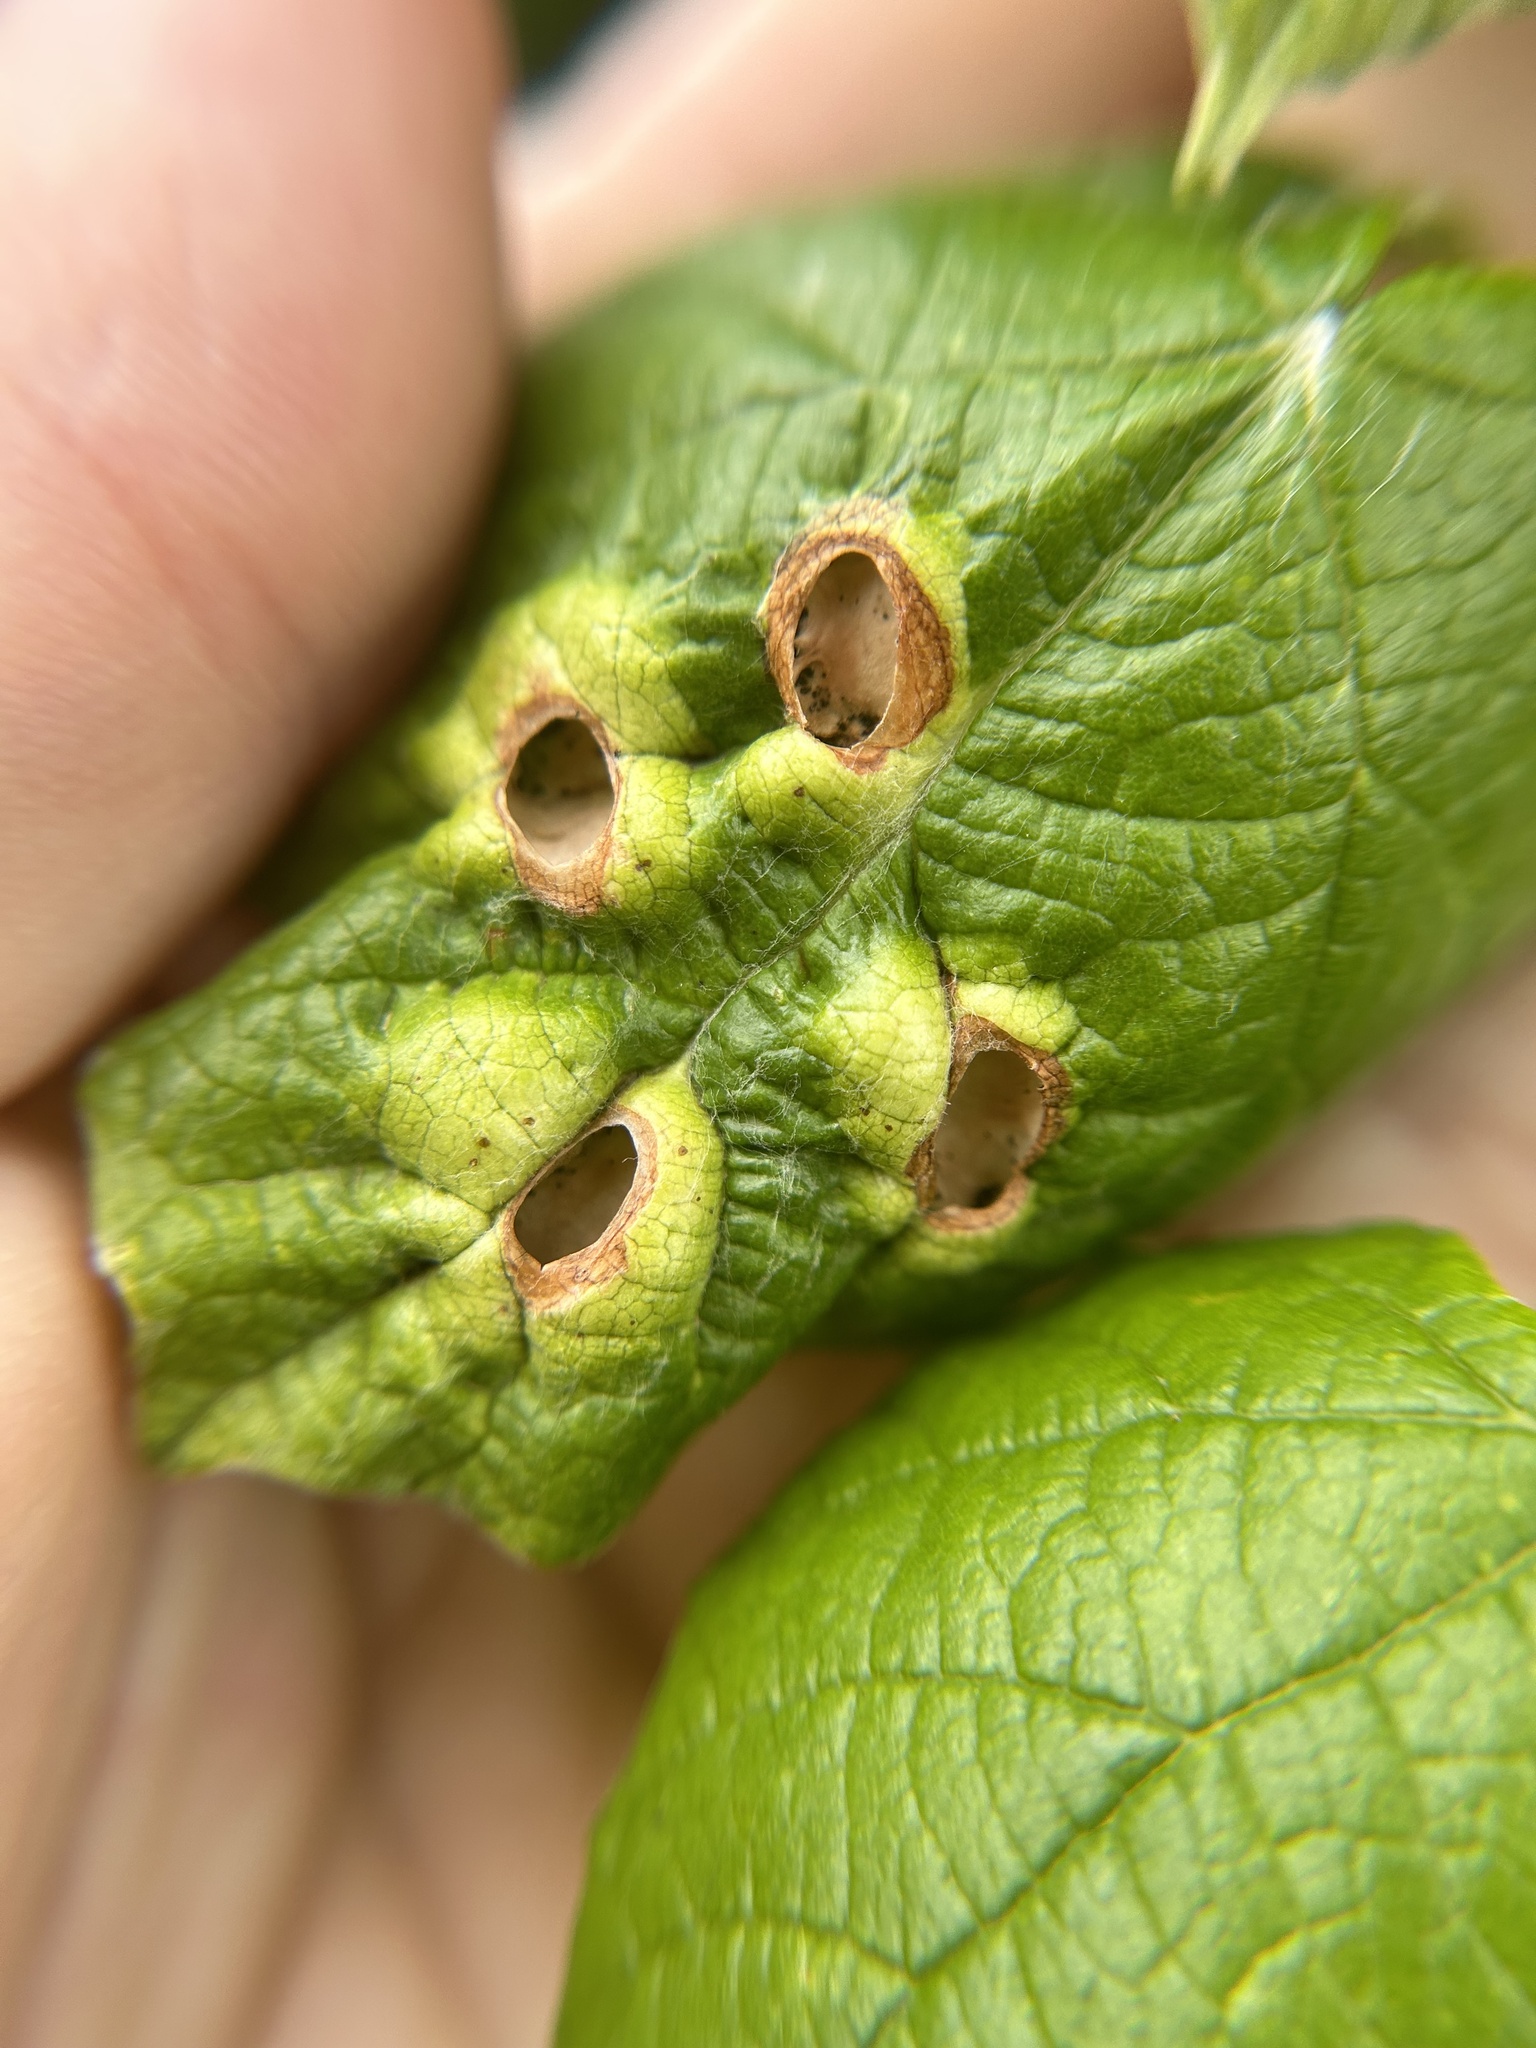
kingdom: Animalia
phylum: Arthropoda
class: Insecta
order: Lepidoptera
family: Heliozelidae
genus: Heliozela
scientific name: Heliozela aesella
